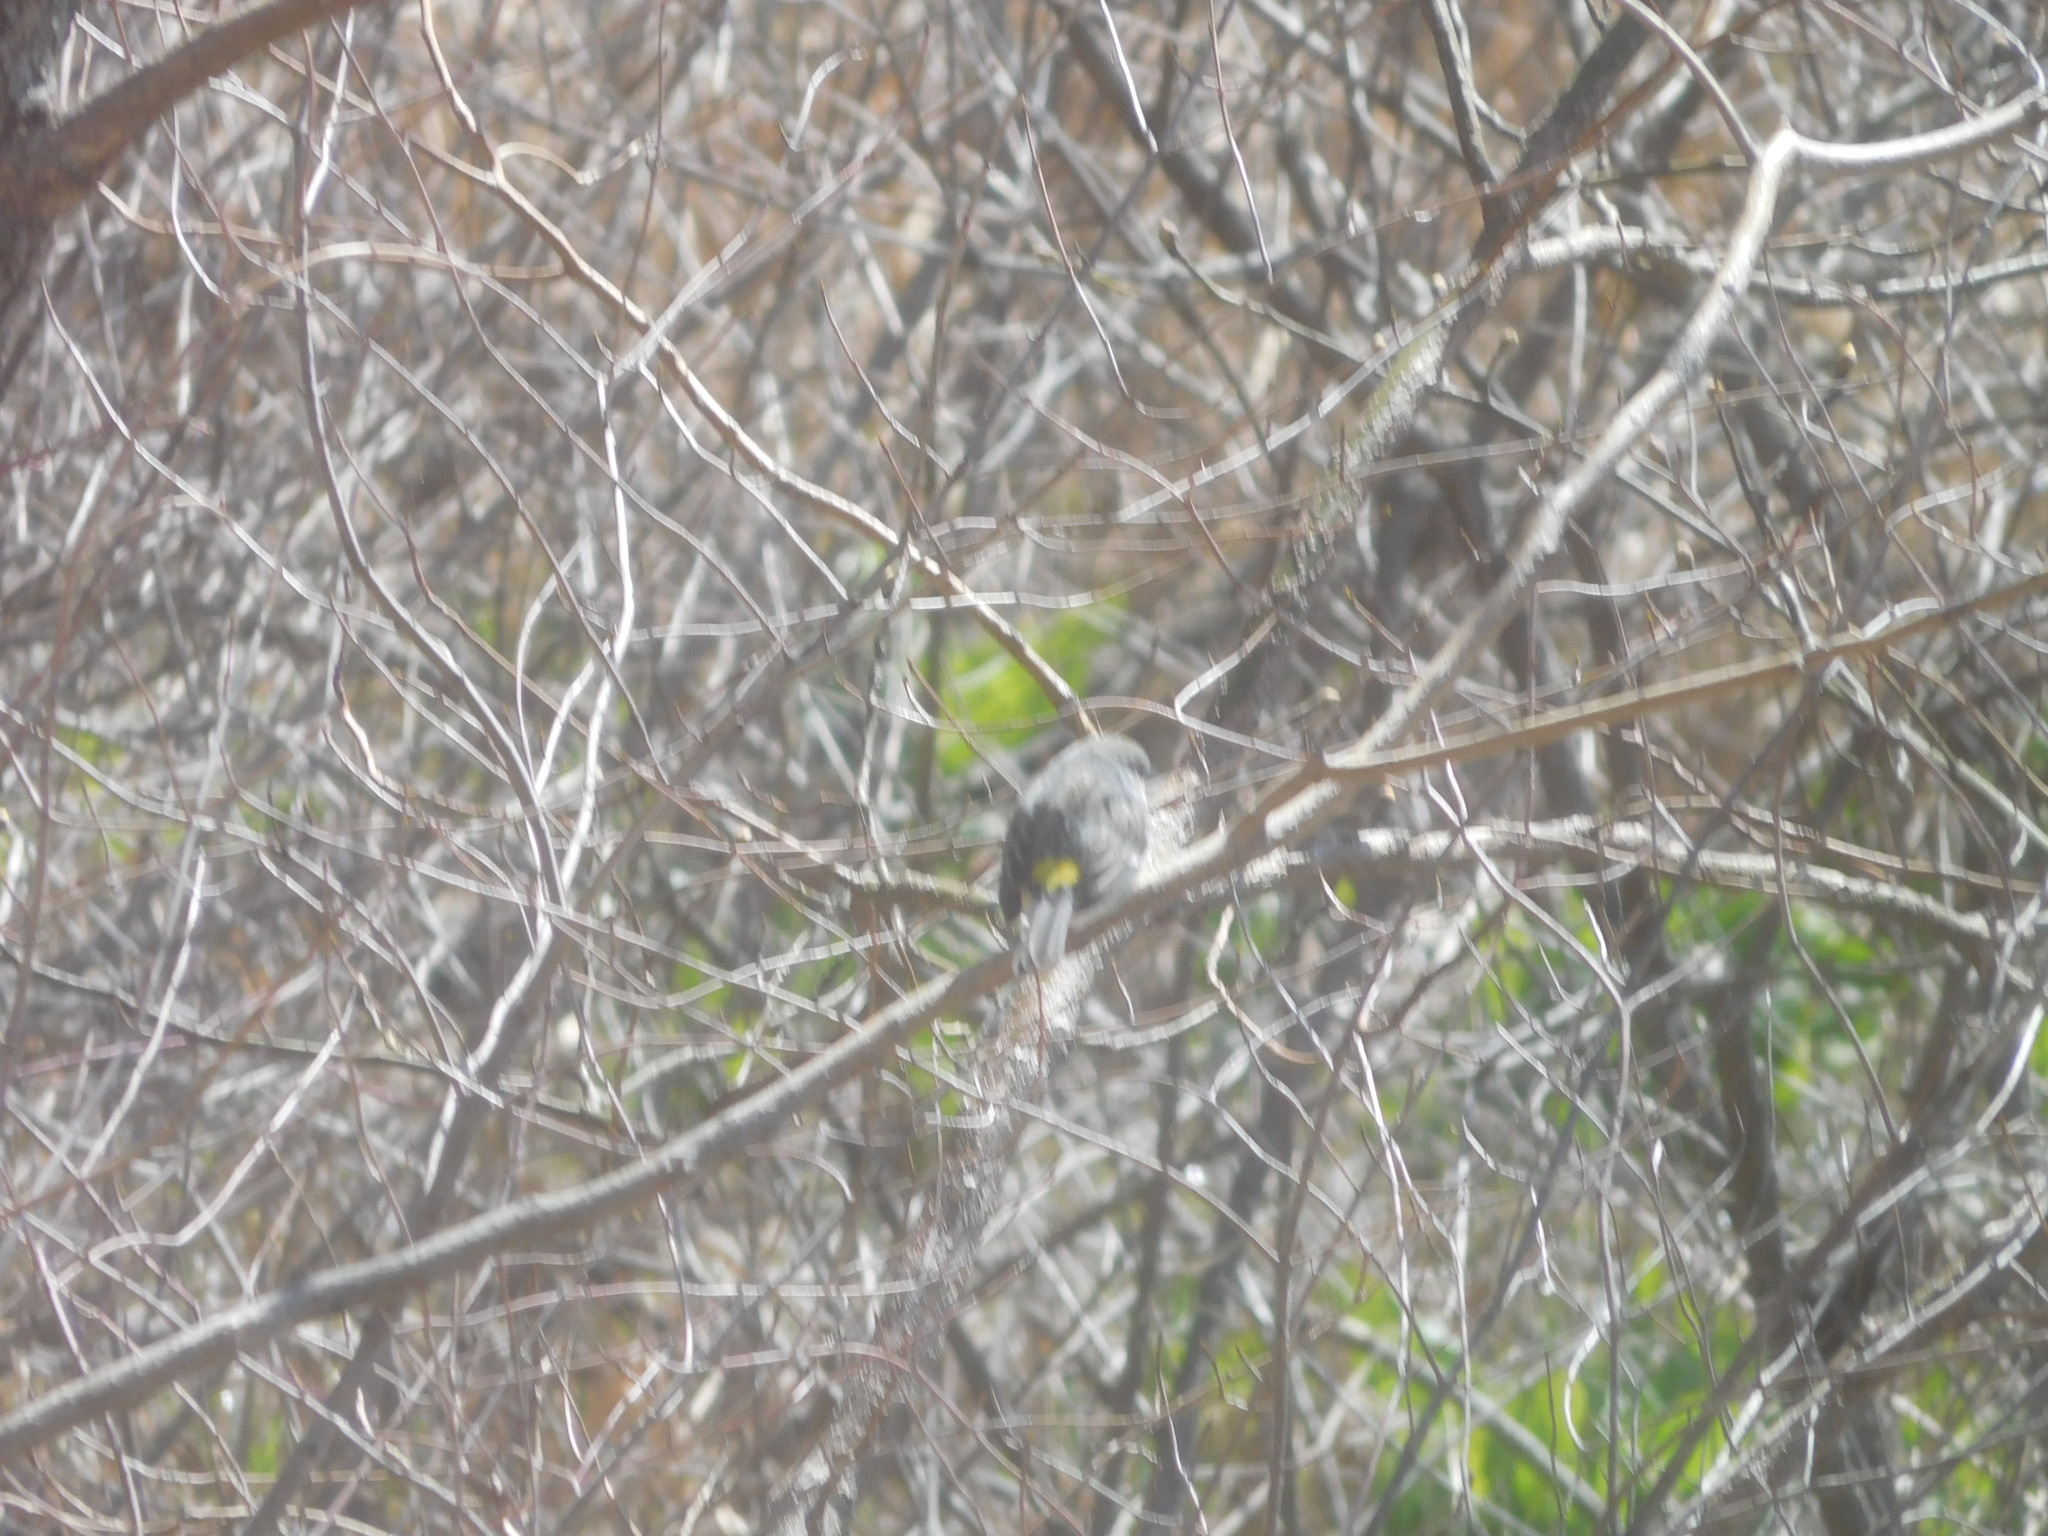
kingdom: Animalia
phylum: Chordata
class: Aves
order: Passeriformes
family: Parulidae
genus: Setophaga
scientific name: Setophaga coronata
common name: Myrtle warbler
